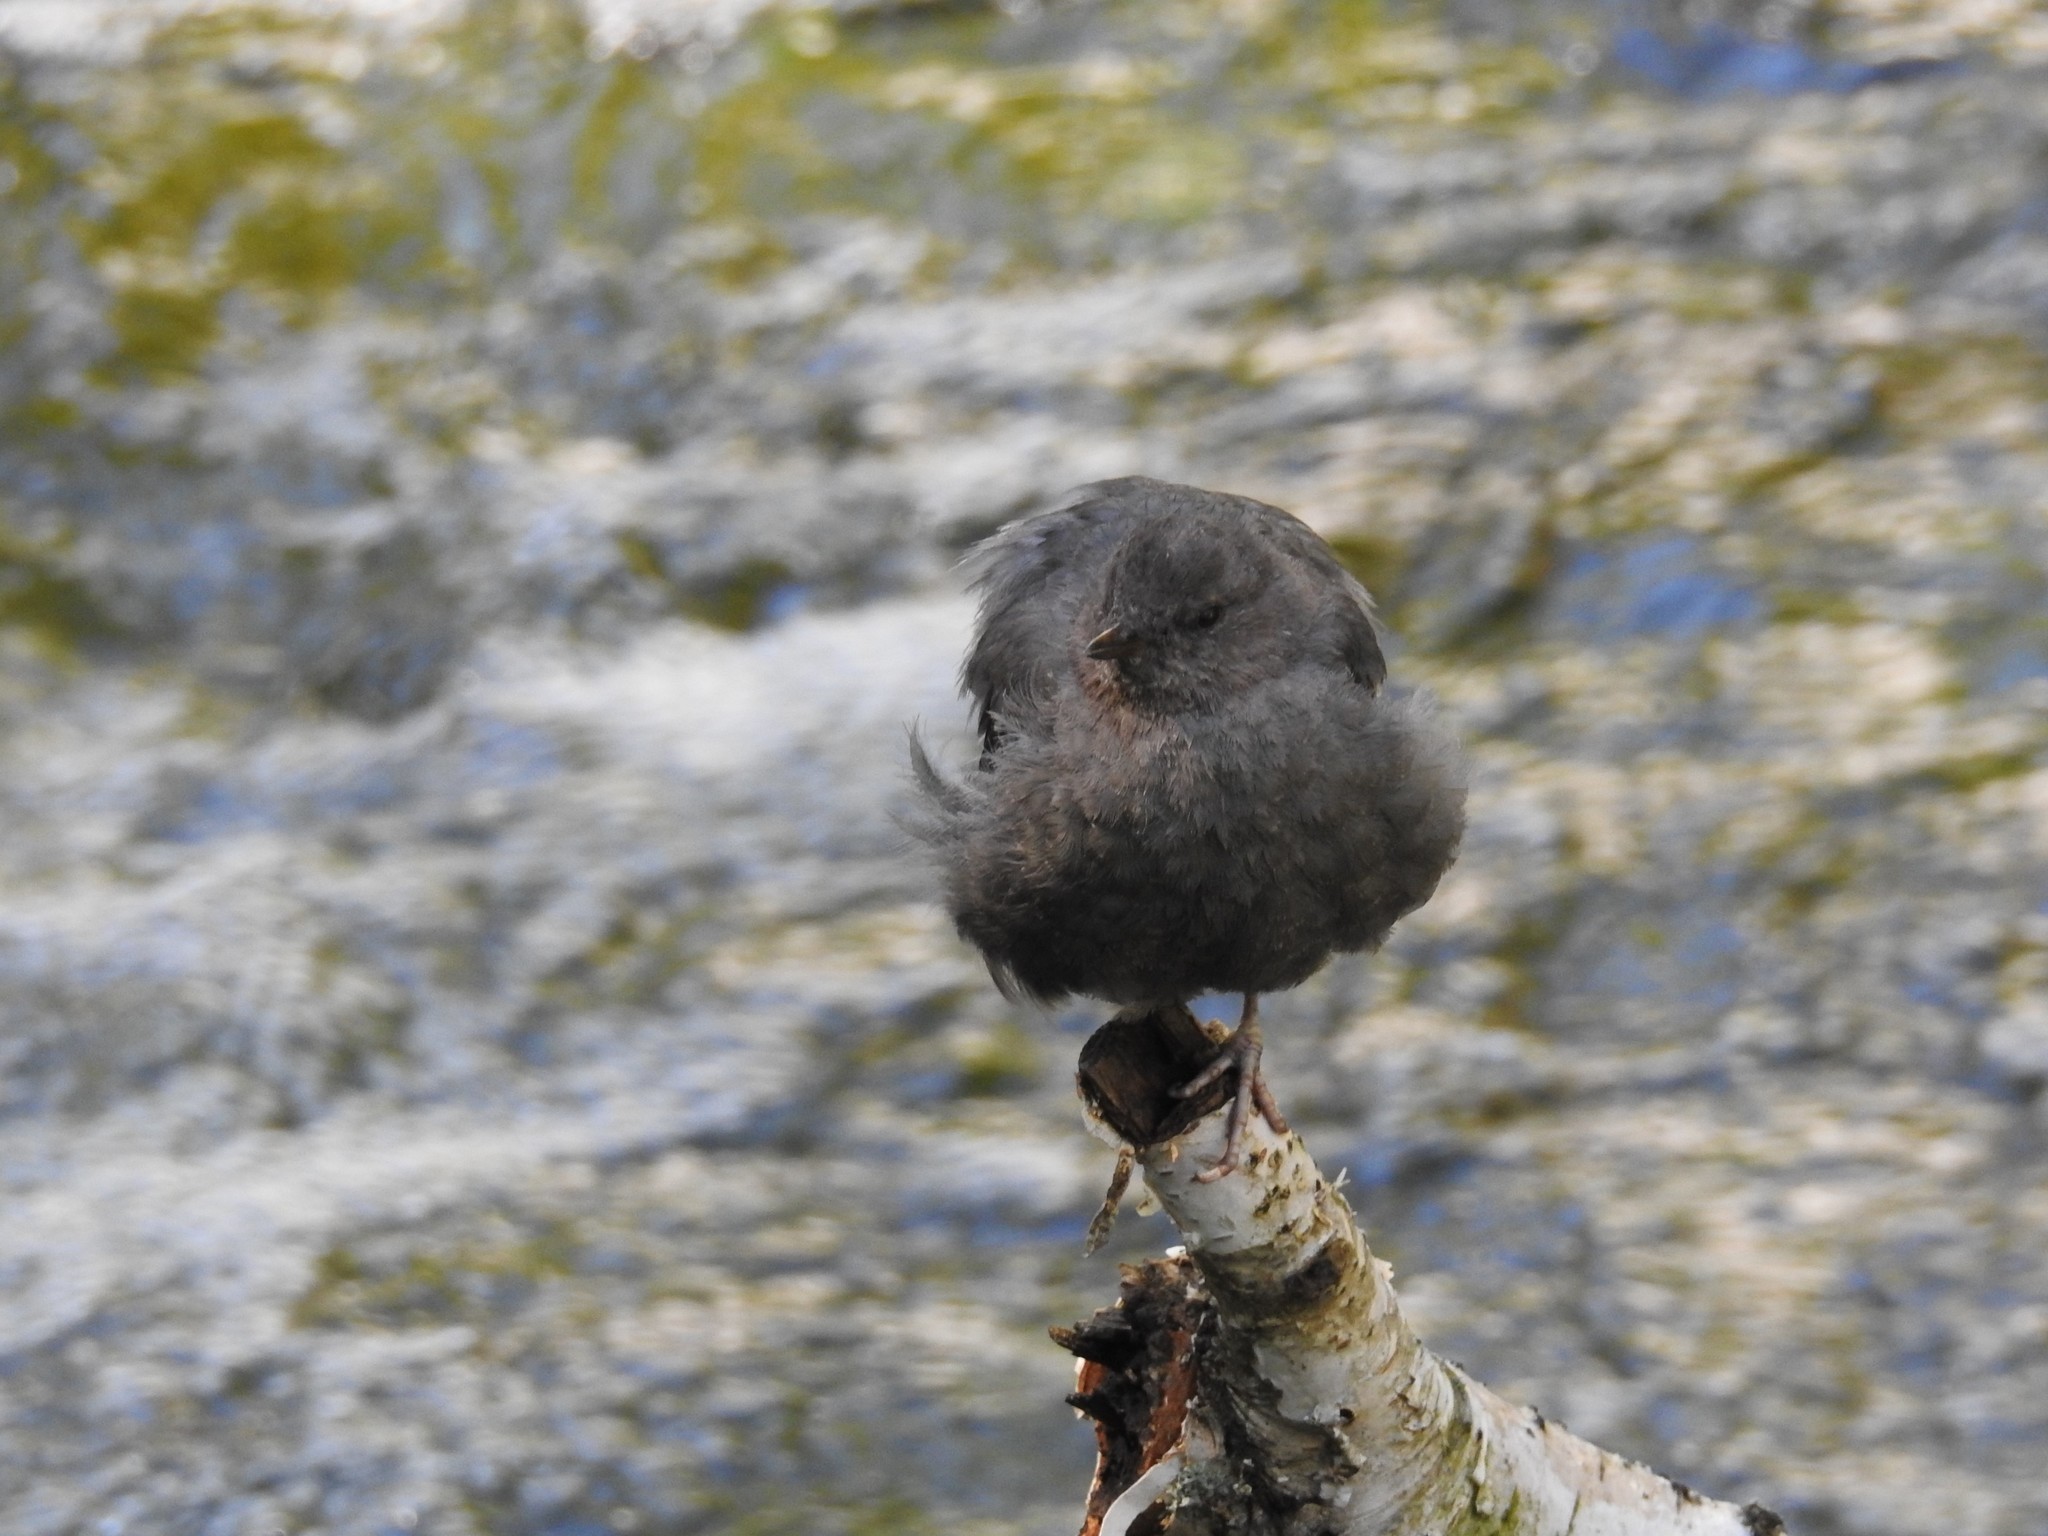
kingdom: Animalia
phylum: Chordata
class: Aves
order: Passeriformes
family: Cinclidae
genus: Cinclus
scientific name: Cinclus mexicanus
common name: American dipper
